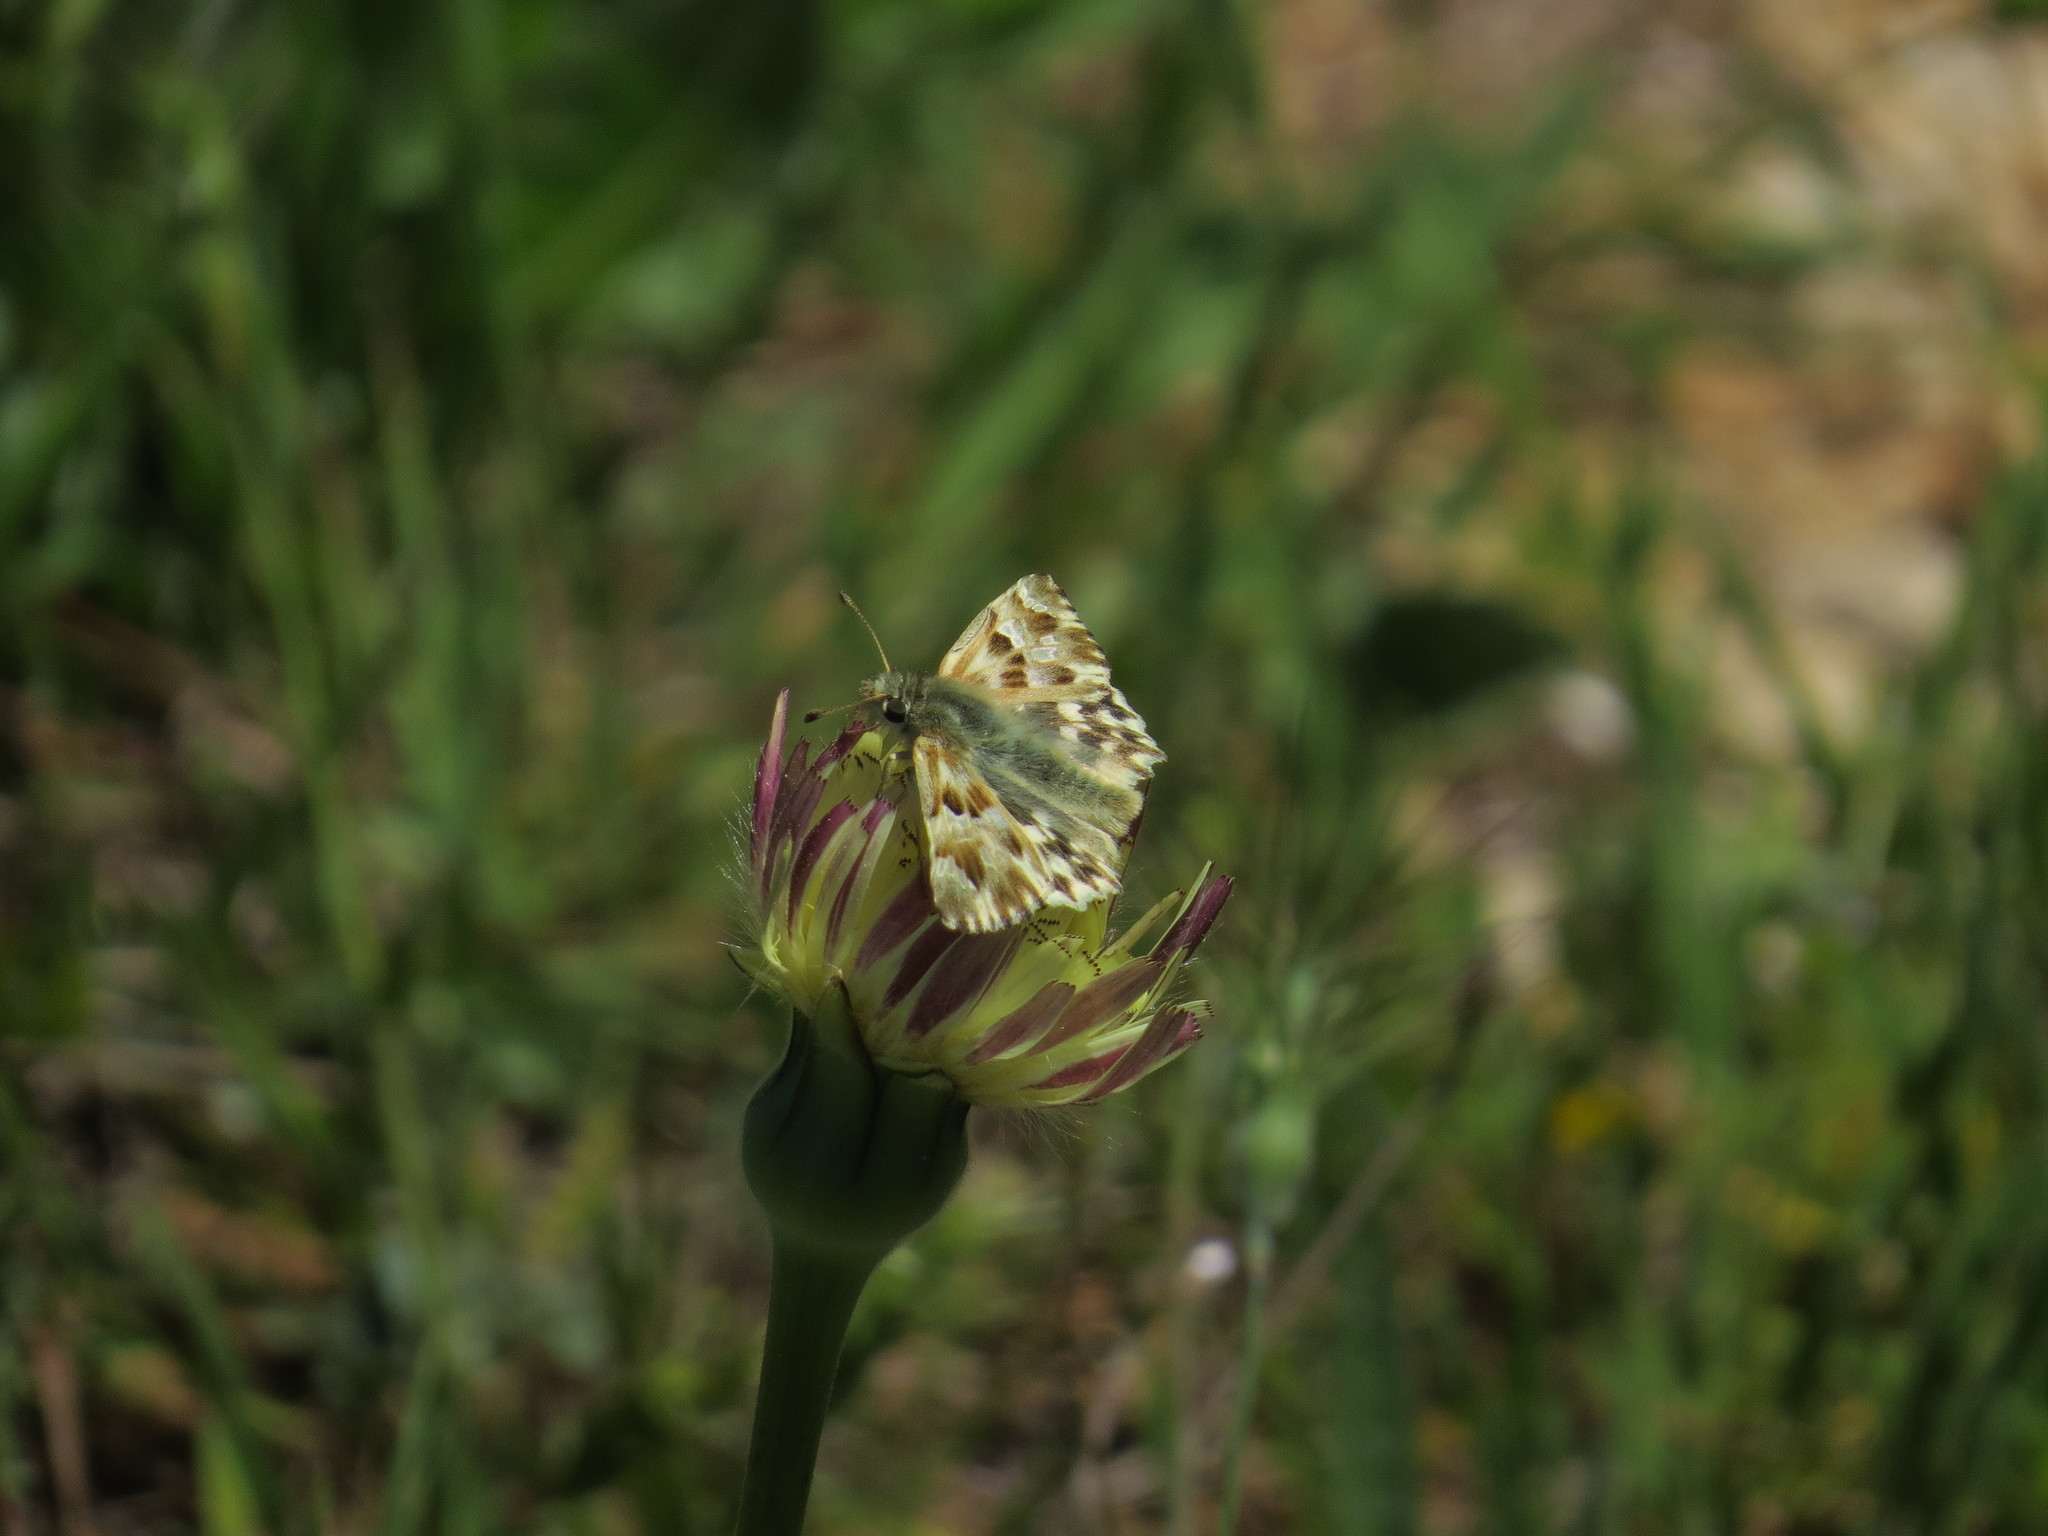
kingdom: Animalia
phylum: Arthropoda
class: Insecta
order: Lepidoptera
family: Hesperiidae
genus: Carcharodus
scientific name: Carcharodus lavatherae
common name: Marbled skipper
